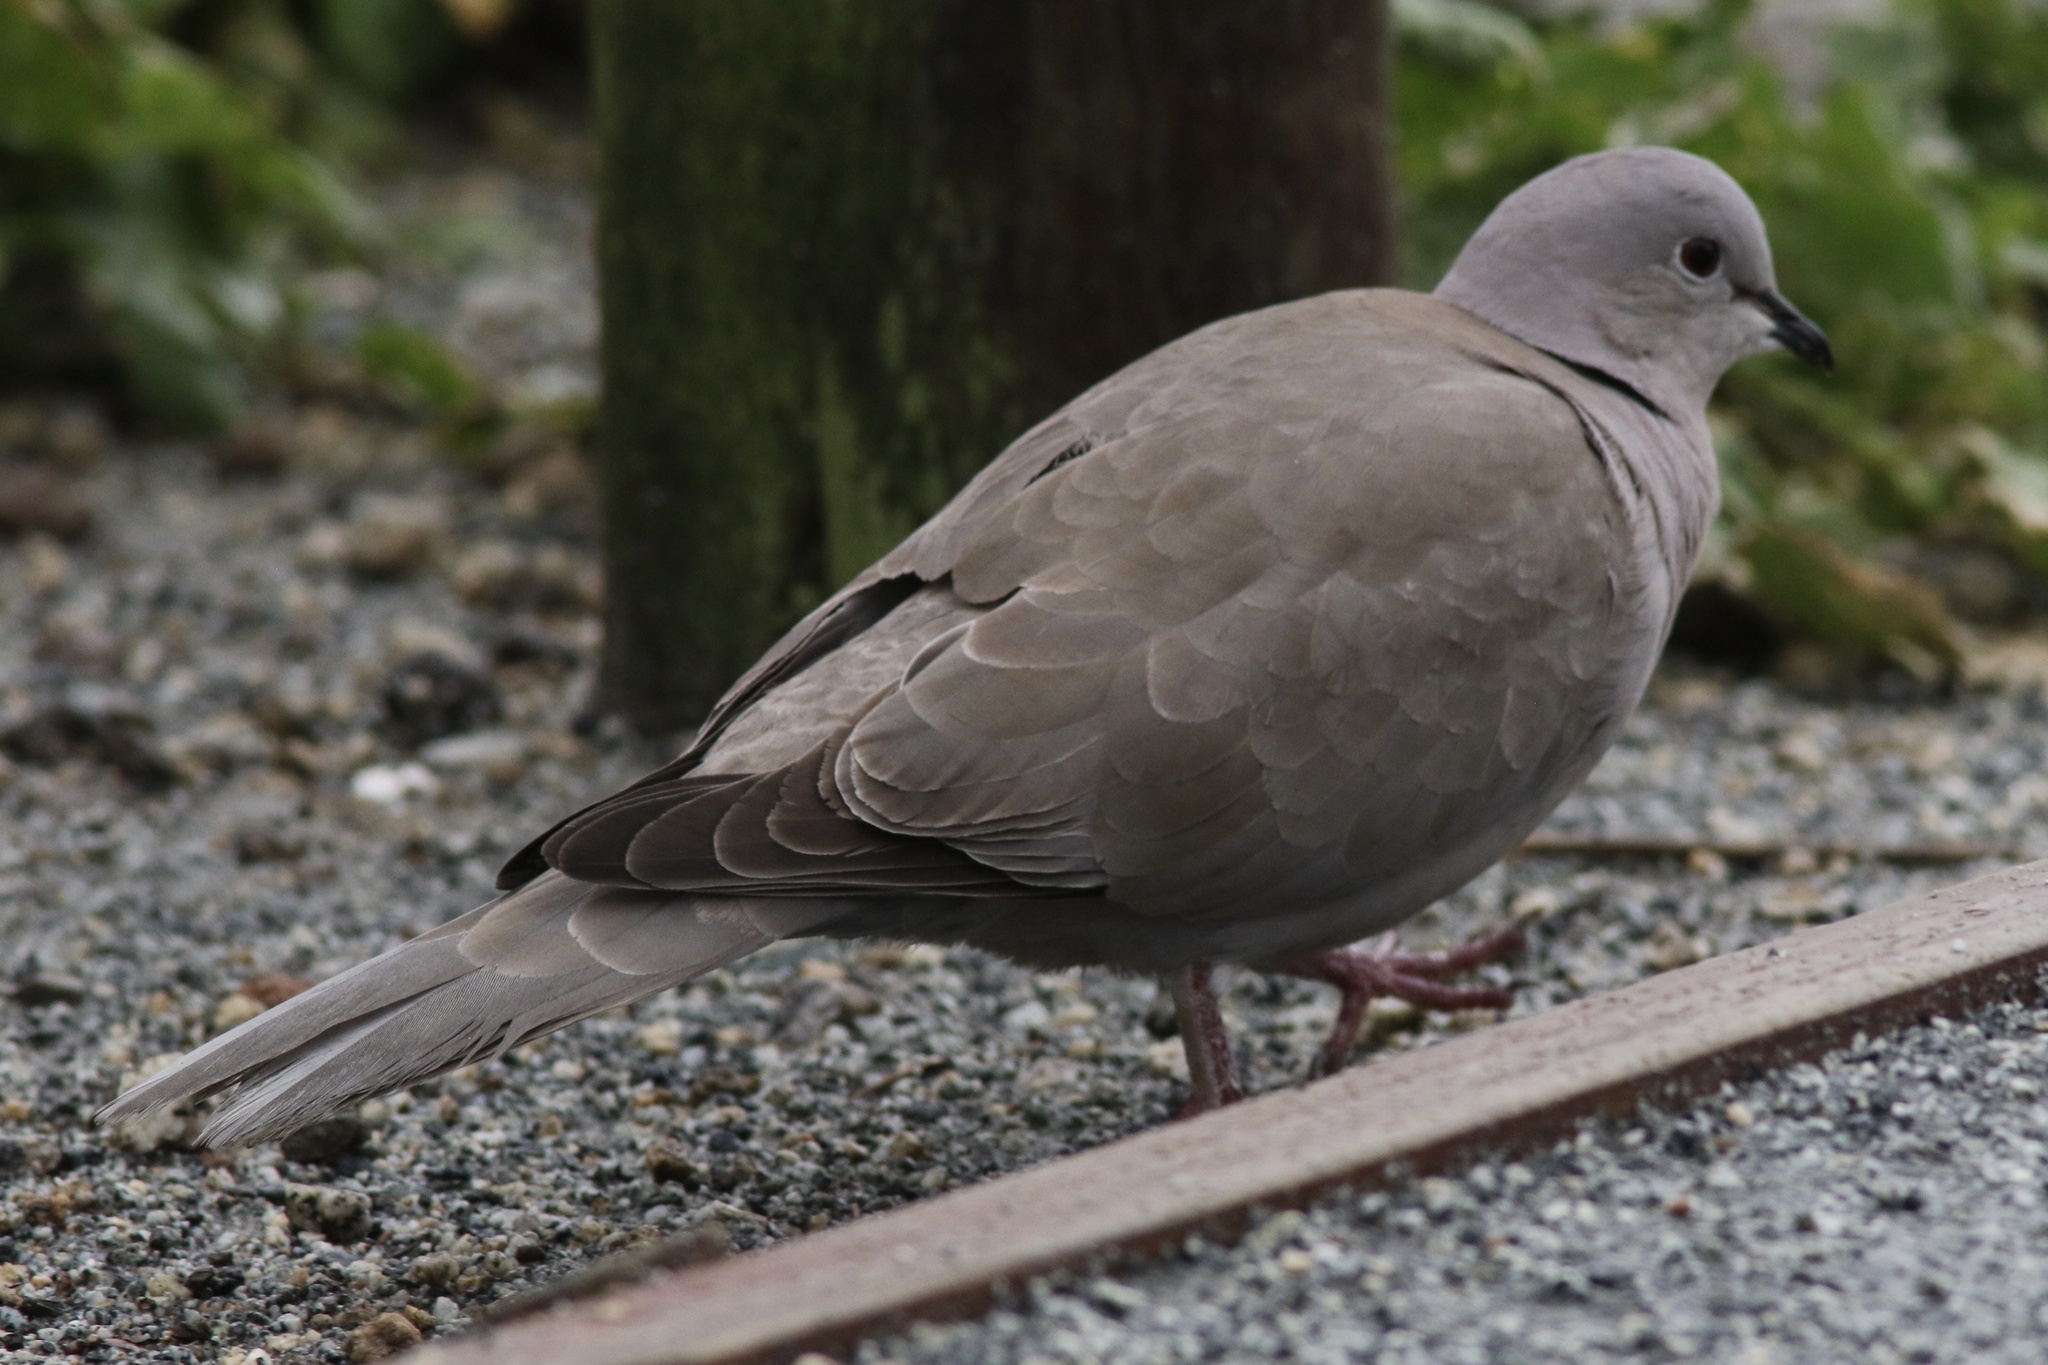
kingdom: Animalia
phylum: Chordata
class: Aves
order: Columbiformes
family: Columbidae
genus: Streptopelia
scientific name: Streptopelia decaocto
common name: Eurasian collared dove
